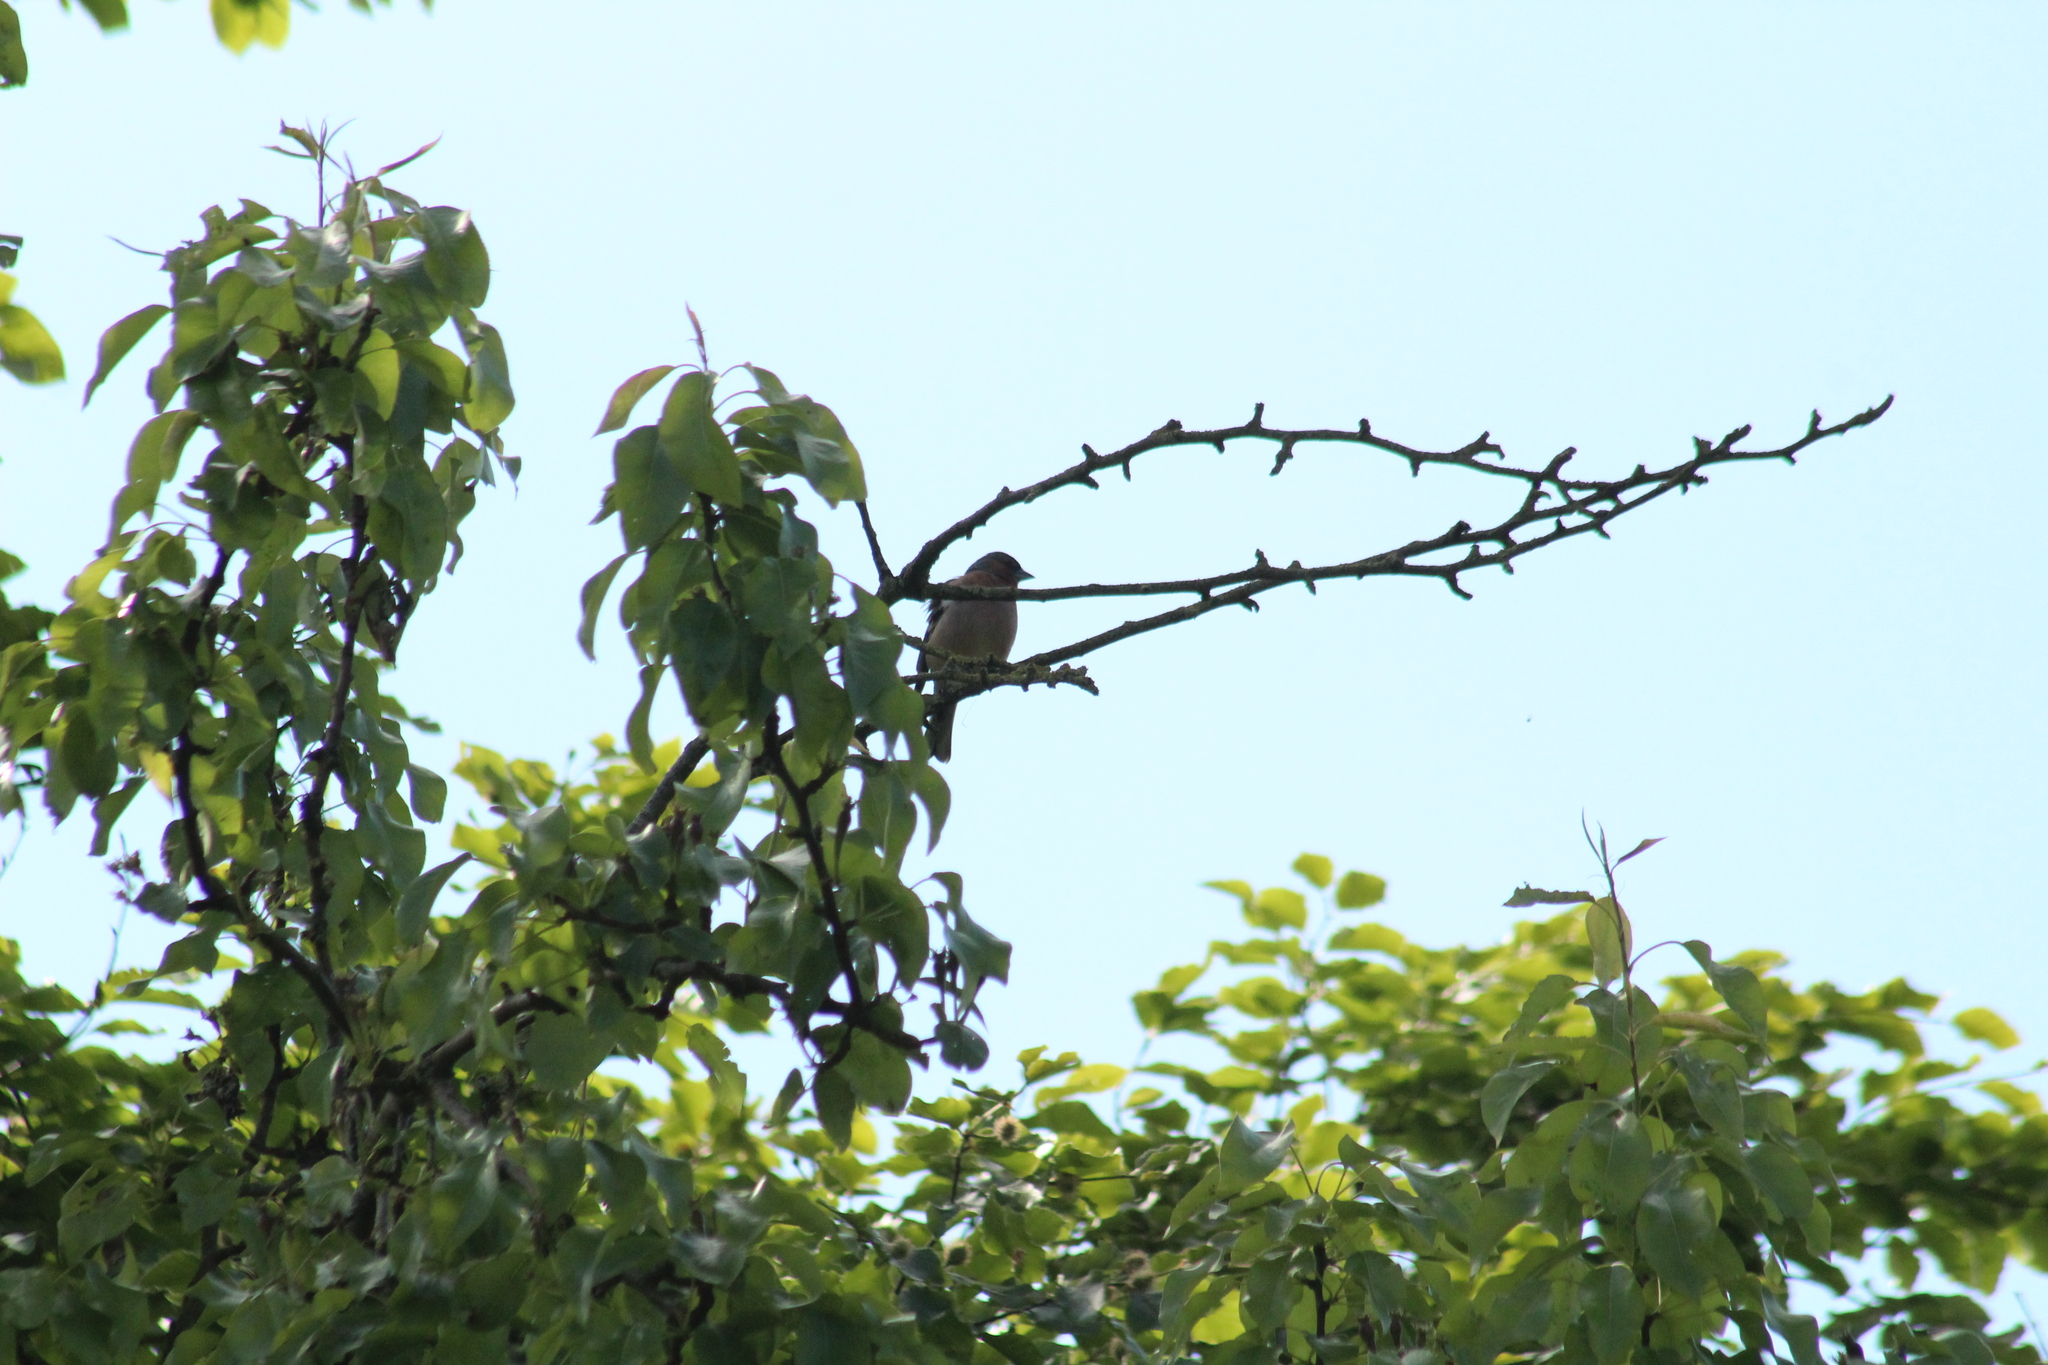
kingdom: Animalia
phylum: Chordata
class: Aves
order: Passeriformes
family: Fringillidae
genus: Fringilla
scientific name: Fringilla coelebs
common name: Common chaffinch
